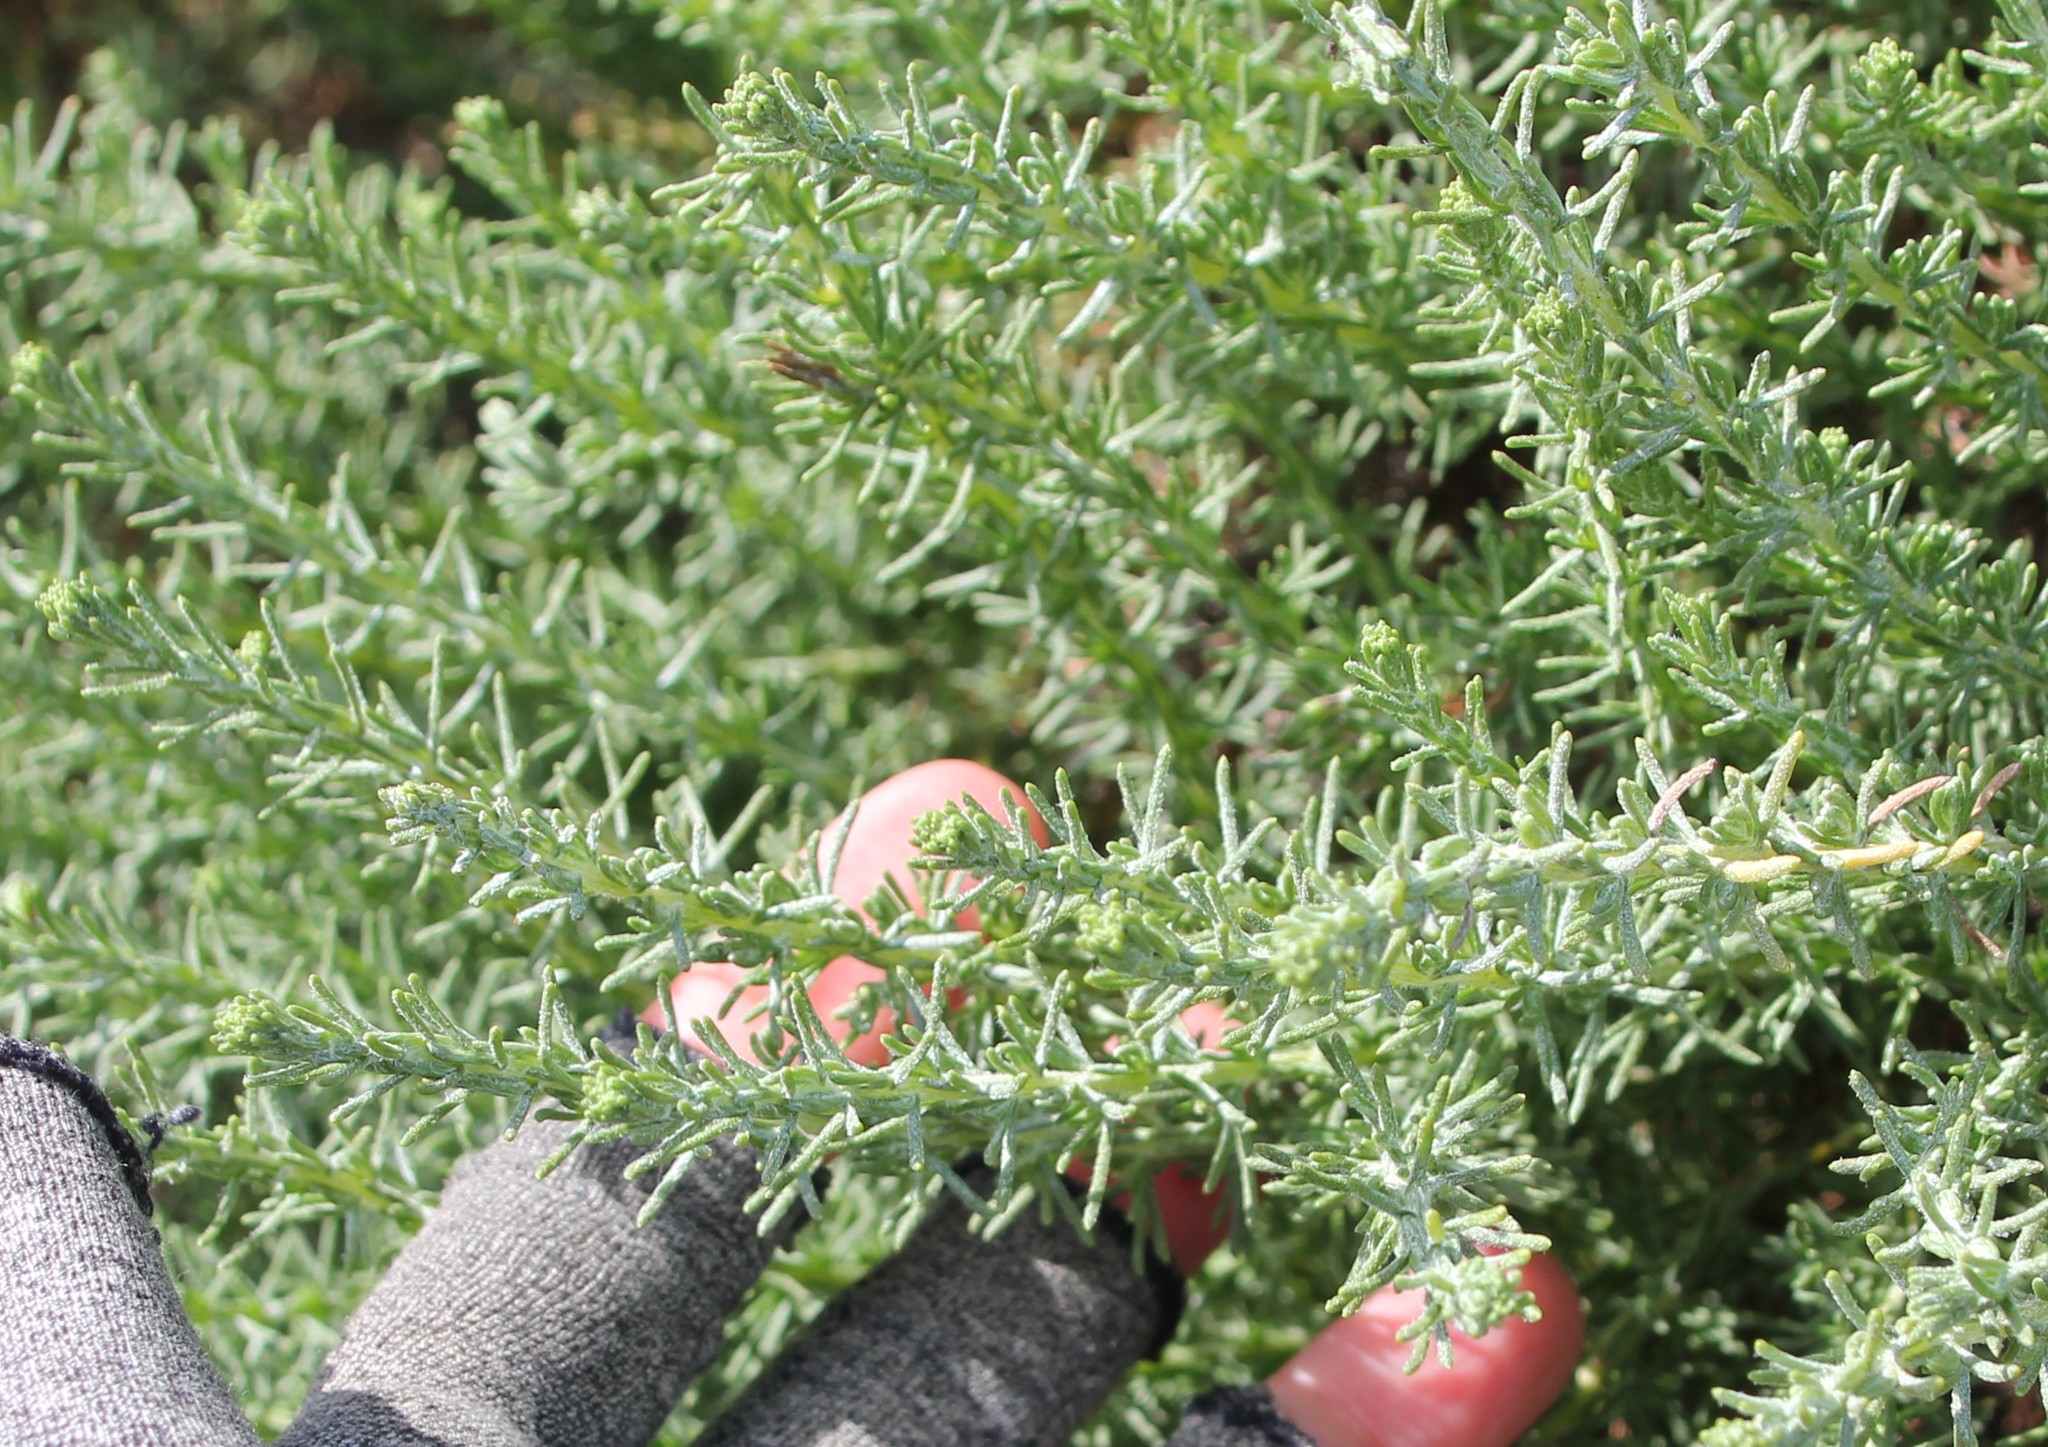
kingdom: Plantae
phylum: Tracheophyta
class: Magnoliopsida
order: Asterales
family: Asteraceae
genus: Ericameria
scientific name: Ericameria ericoides
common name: California goldenbush
